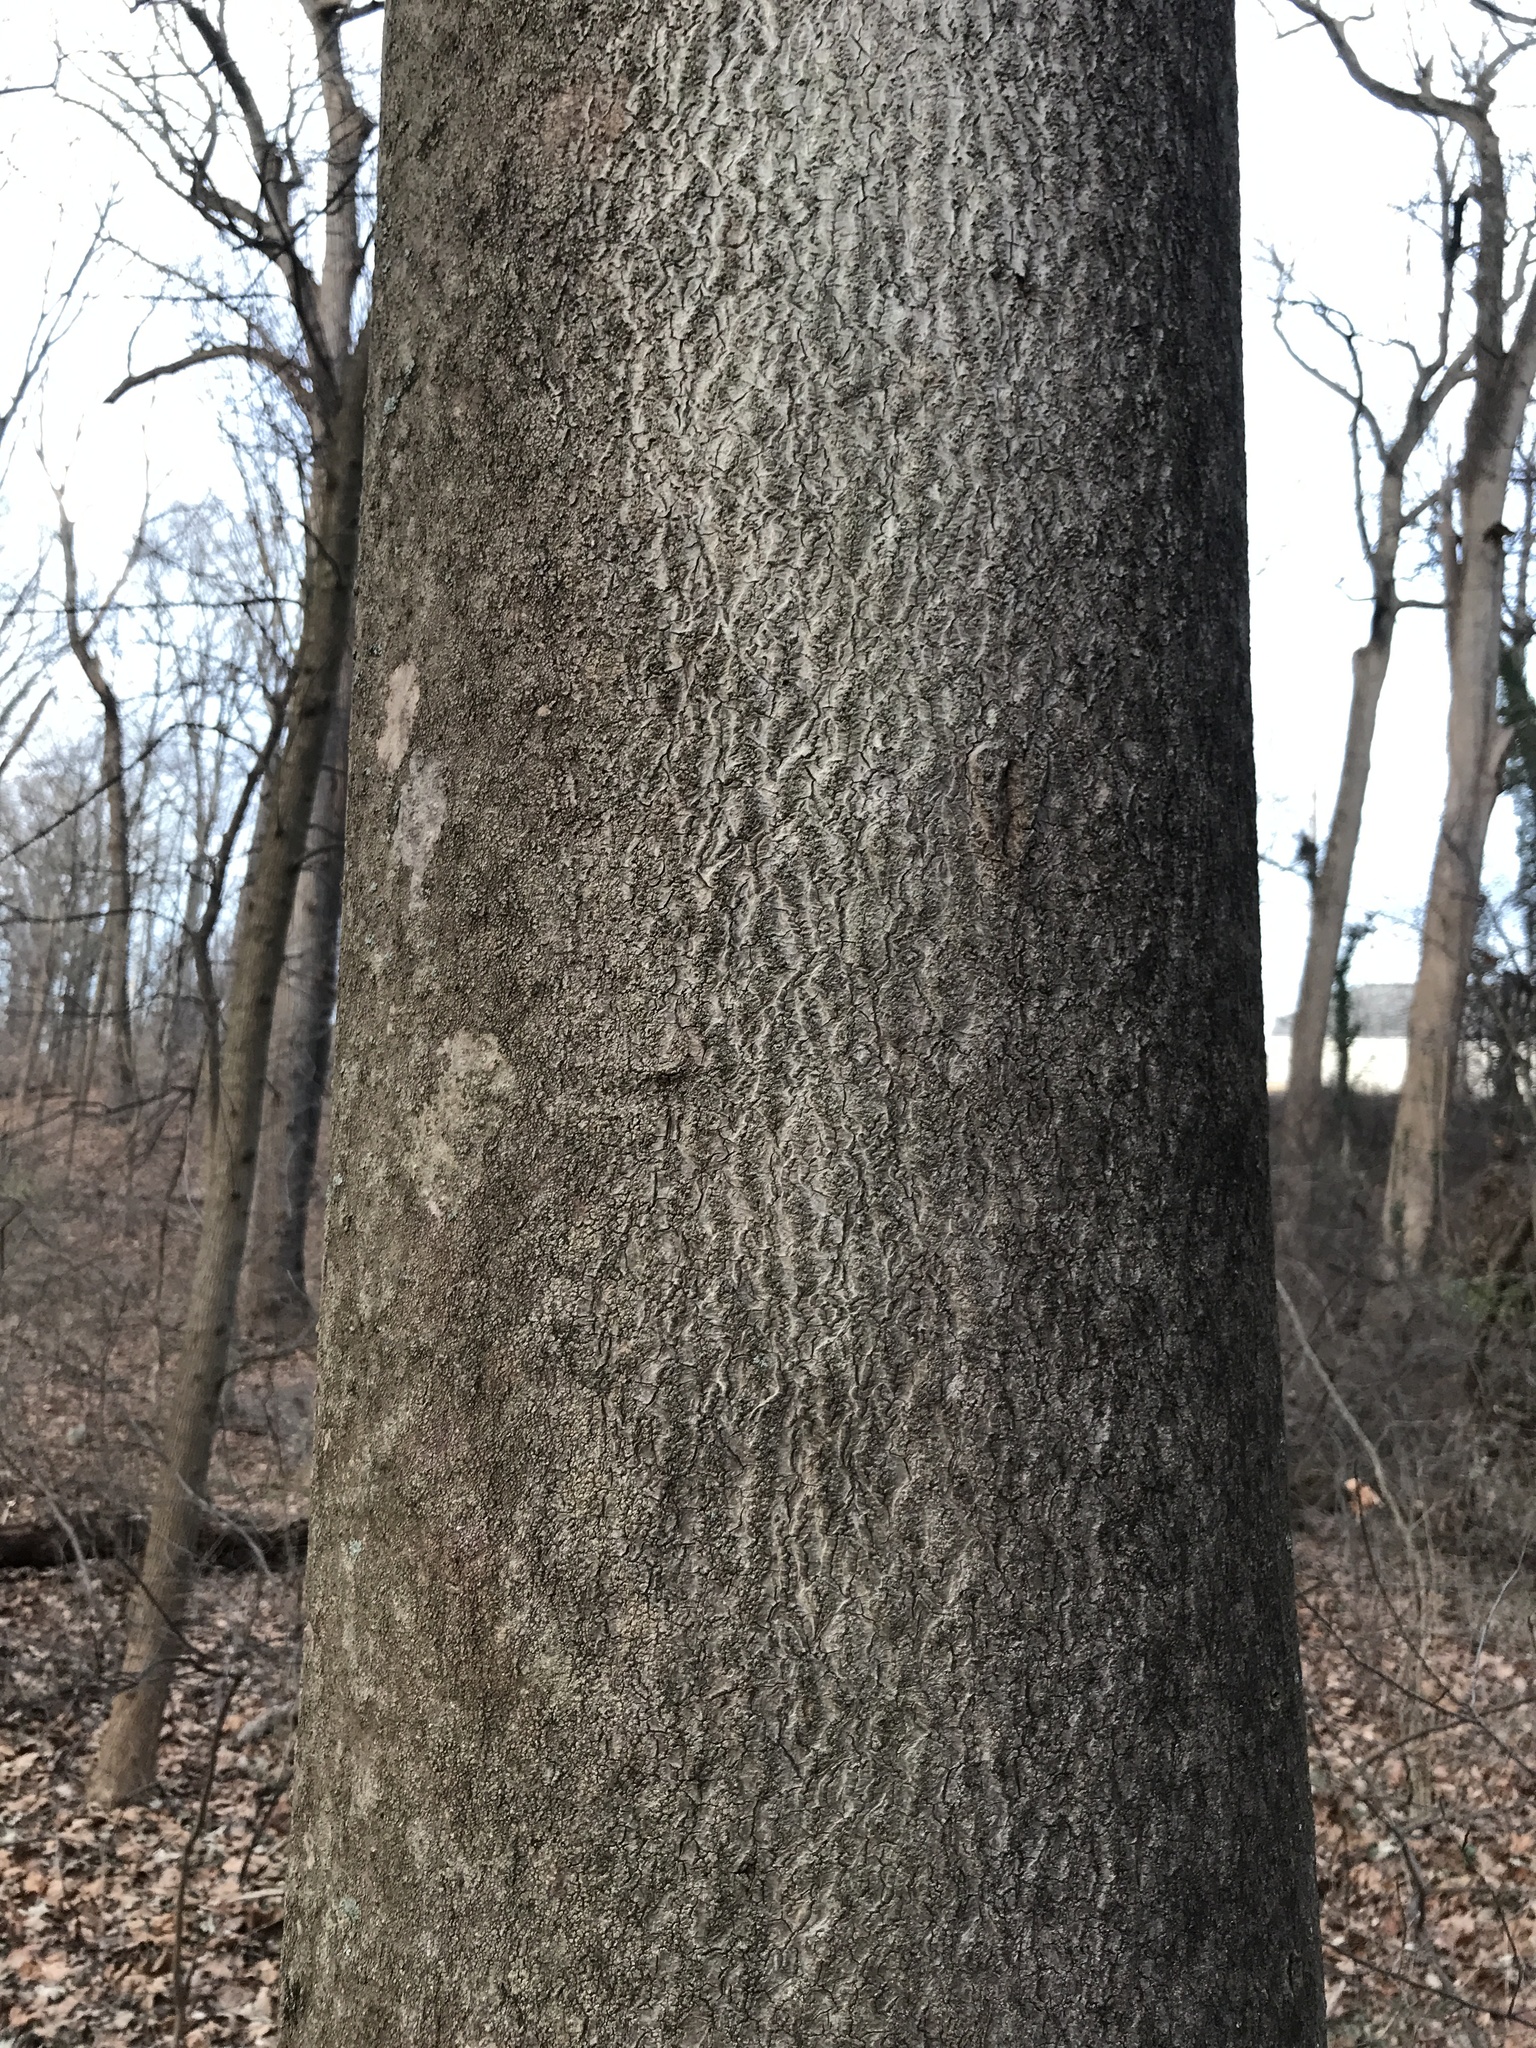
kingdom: Plantae
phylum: Tracheophyta
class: Magnoliopsida
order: Sapindales
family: Simaroubaceae
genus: Ailanthus
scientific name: Ailanthus altissima
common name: Tree-of-heaven
